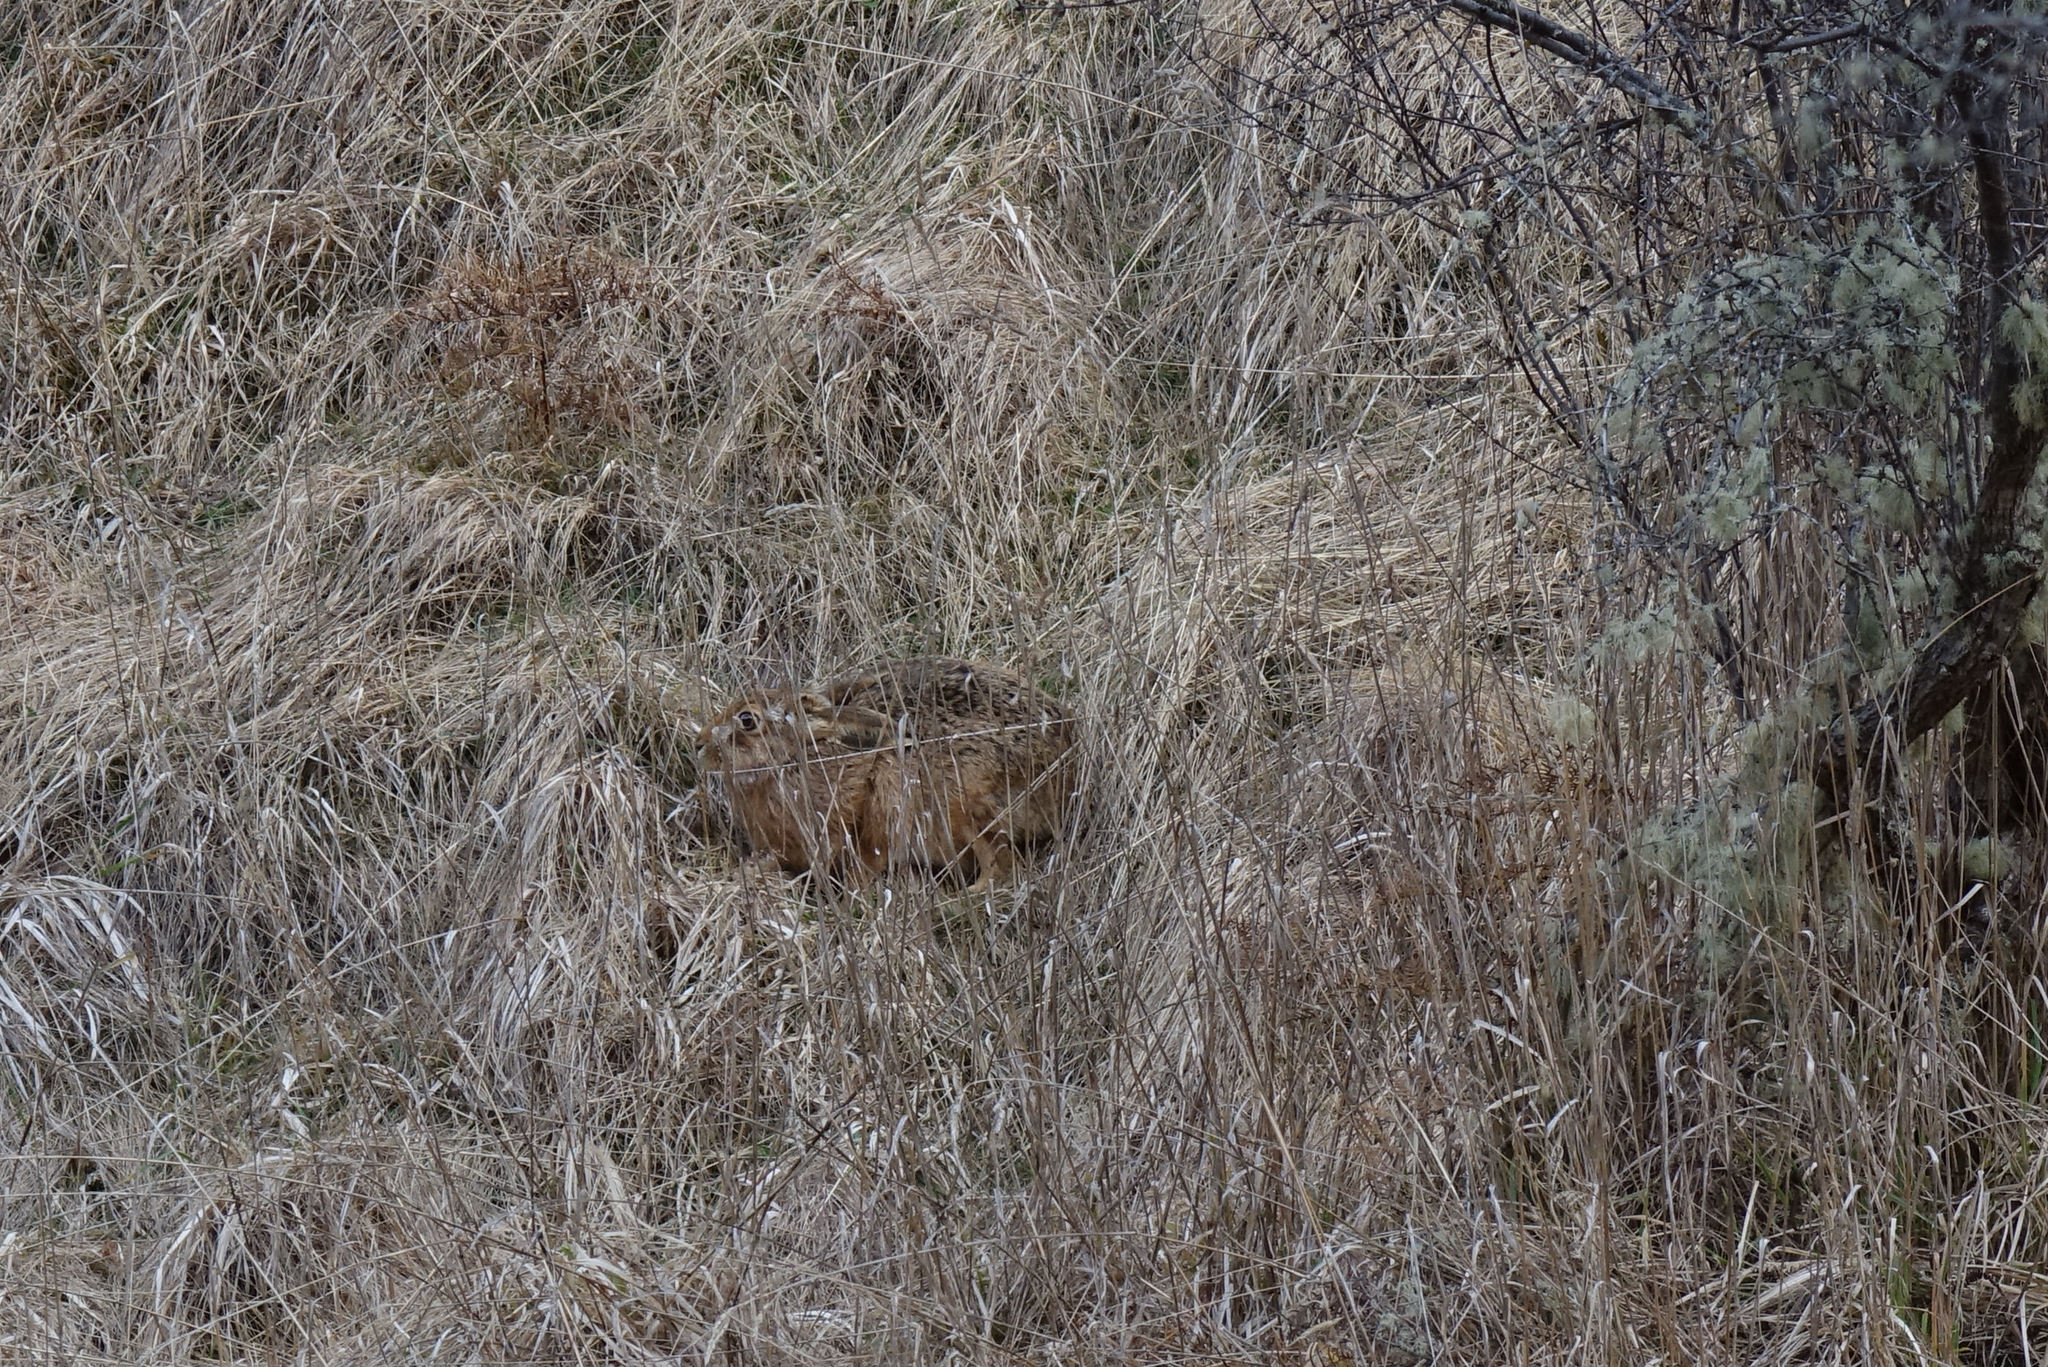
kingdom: Animalia
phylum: Chordata
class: Mammalia
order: Lagomorpha
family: Leporidae
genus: Lepus
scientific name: Lepus europaeus
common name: European hare
